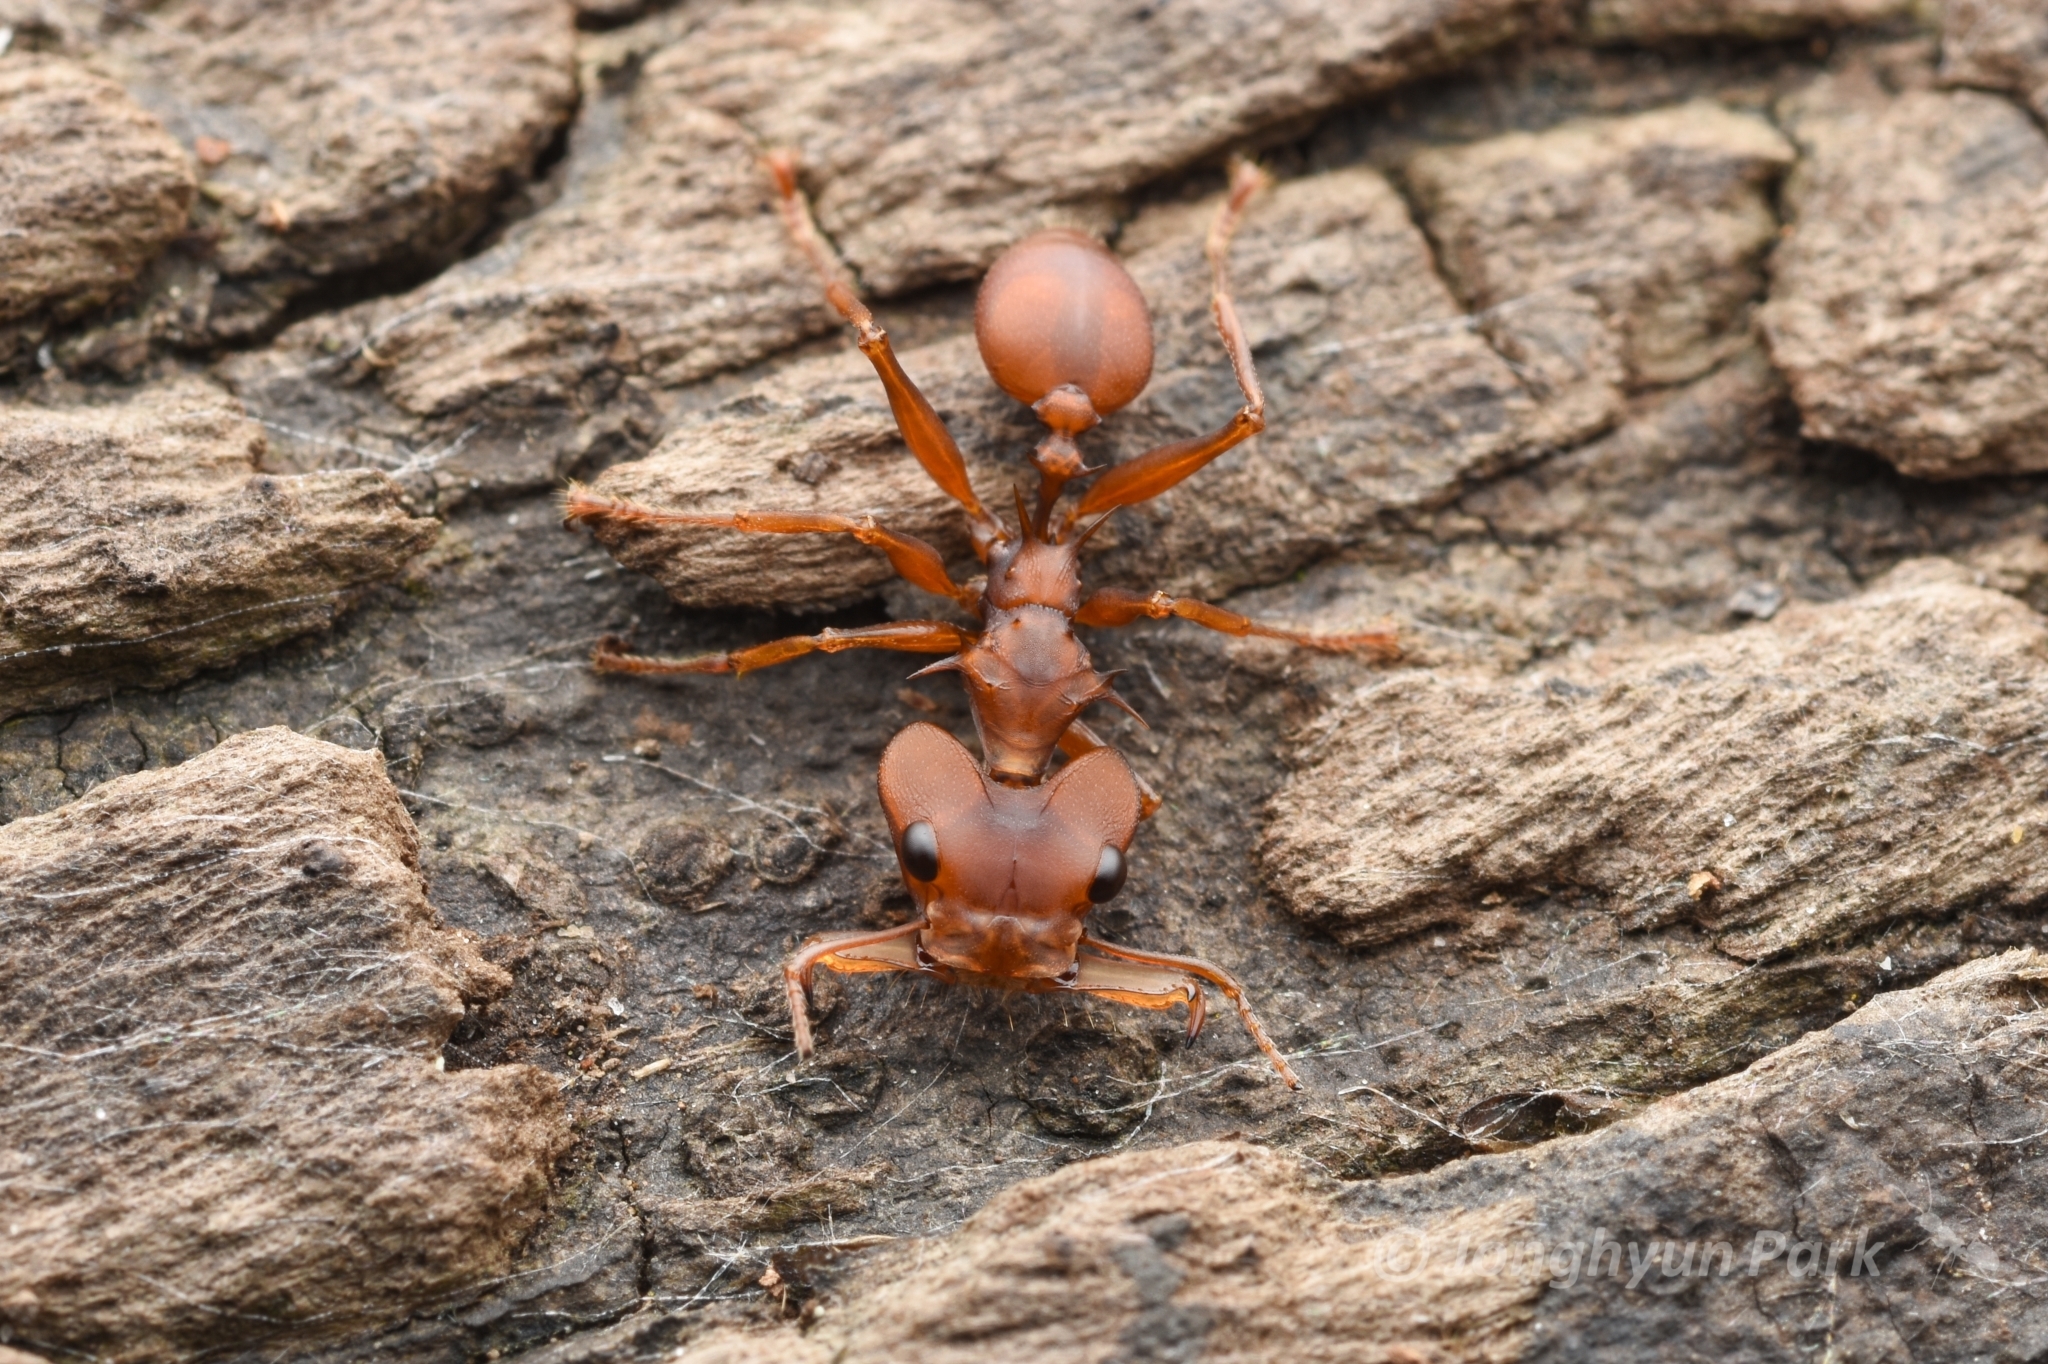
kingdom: Animalia
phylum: Arthropoda
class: Insecta
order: Hymenoptera
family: Formicidae
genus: Daceton
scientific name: Daceton armigerum
